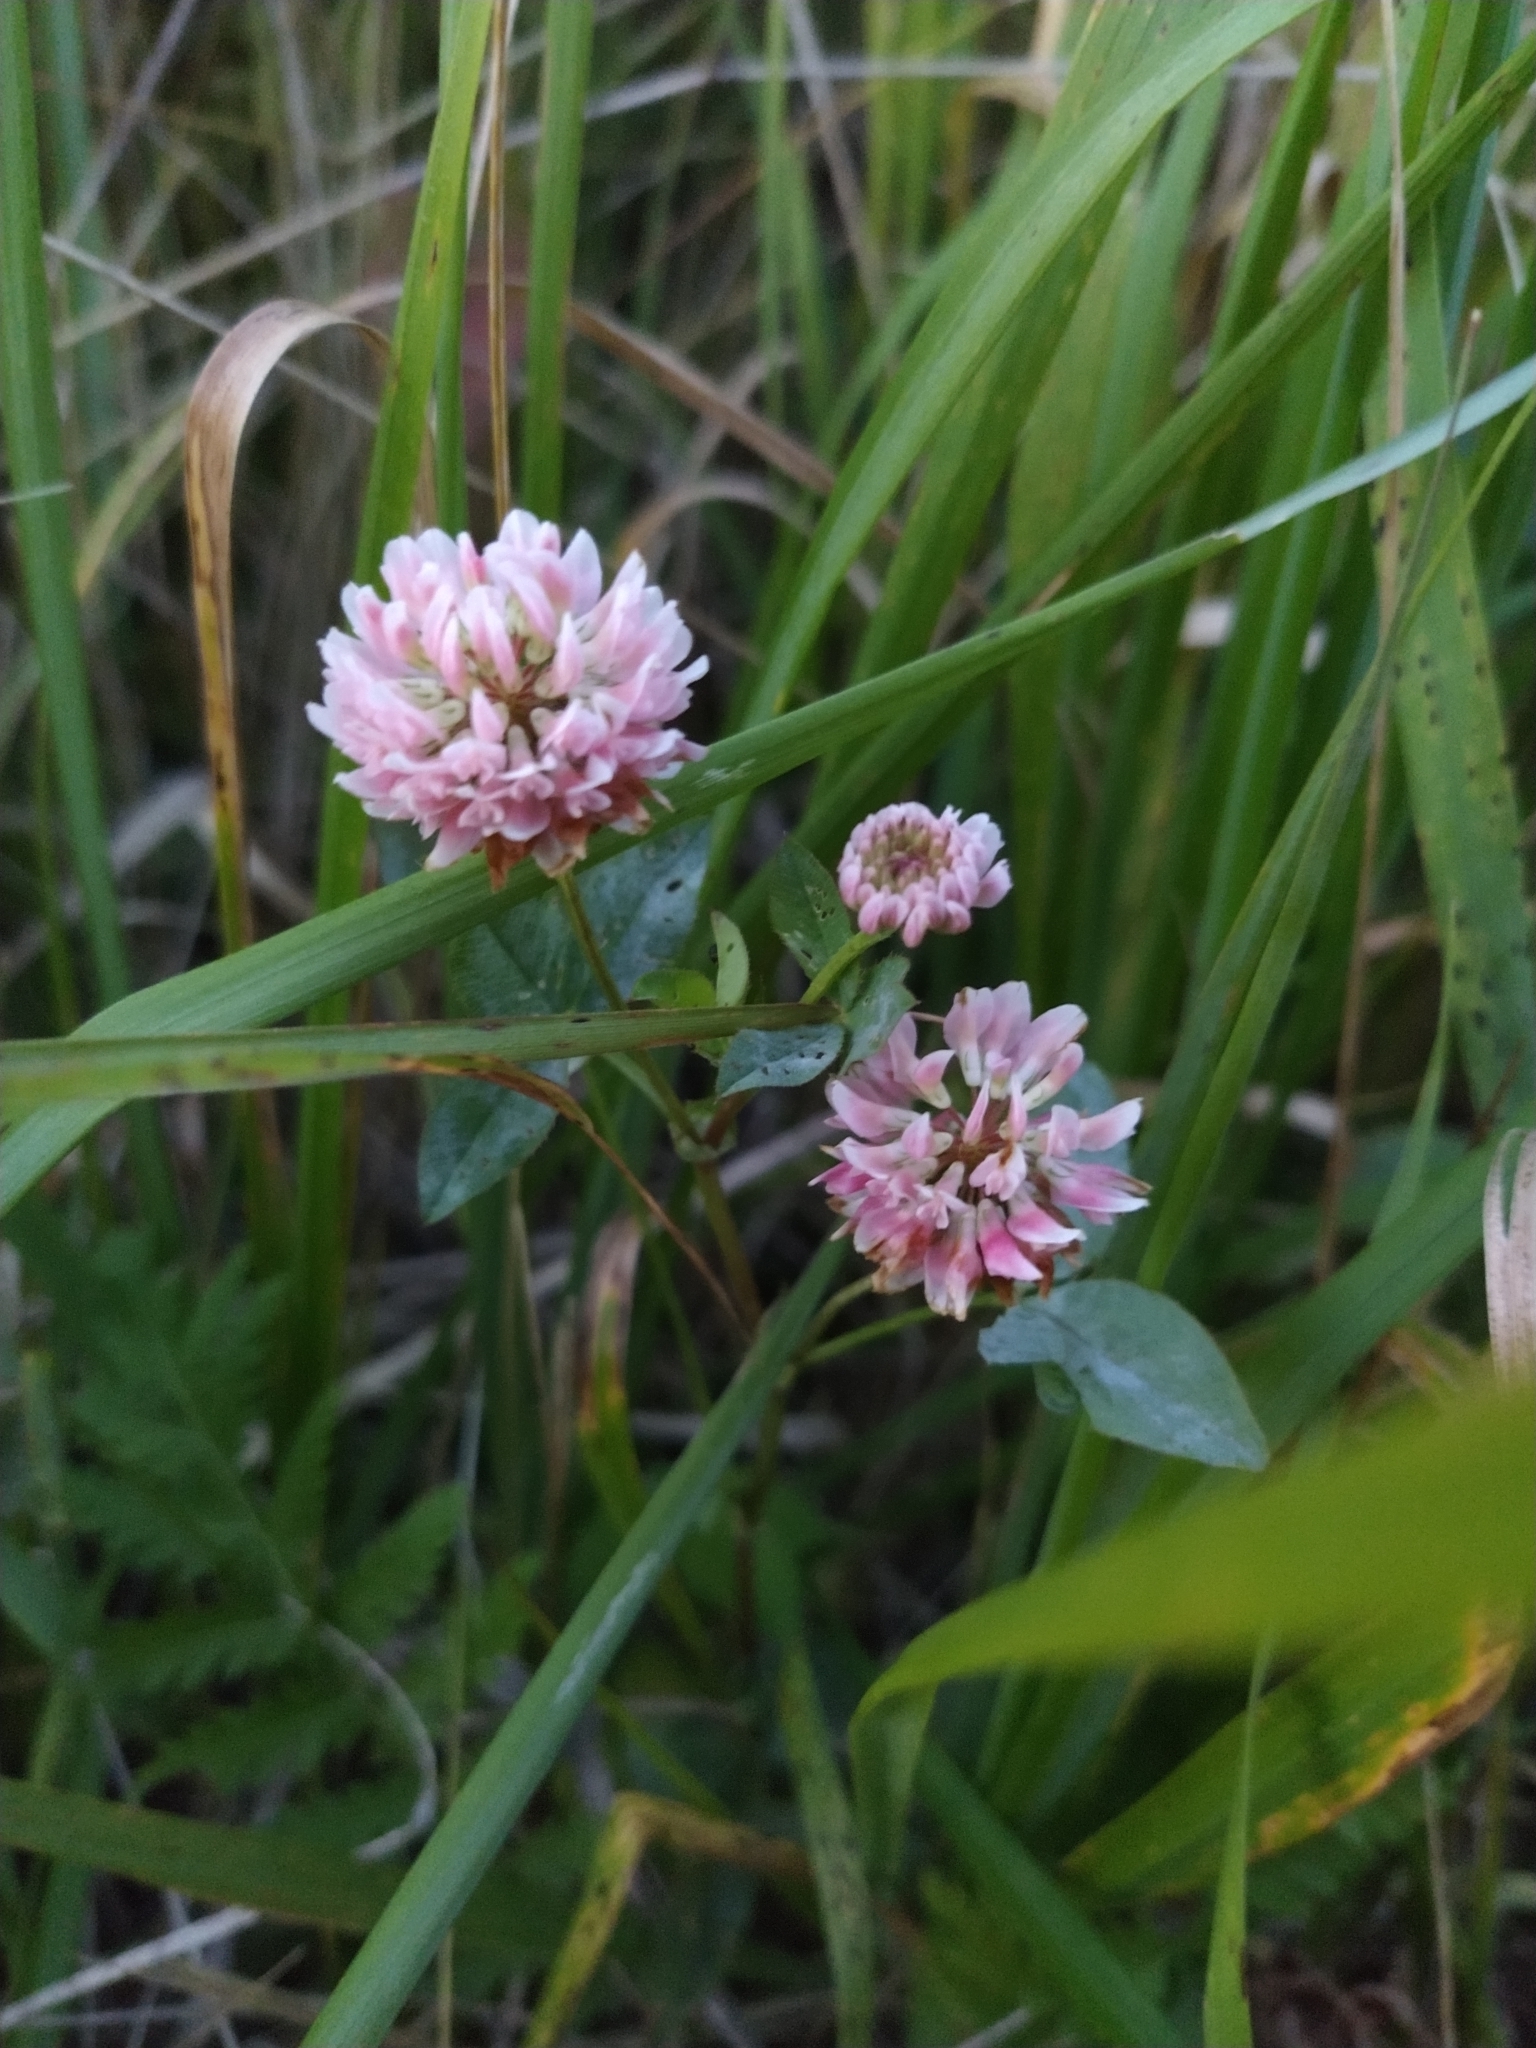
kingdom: Plantae
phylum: Tracheophyta
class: Magnoliopsida
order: Fabales
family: Fabaceae
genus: Trifolium
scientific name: Trifolium hybridum
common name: Alsike clover
